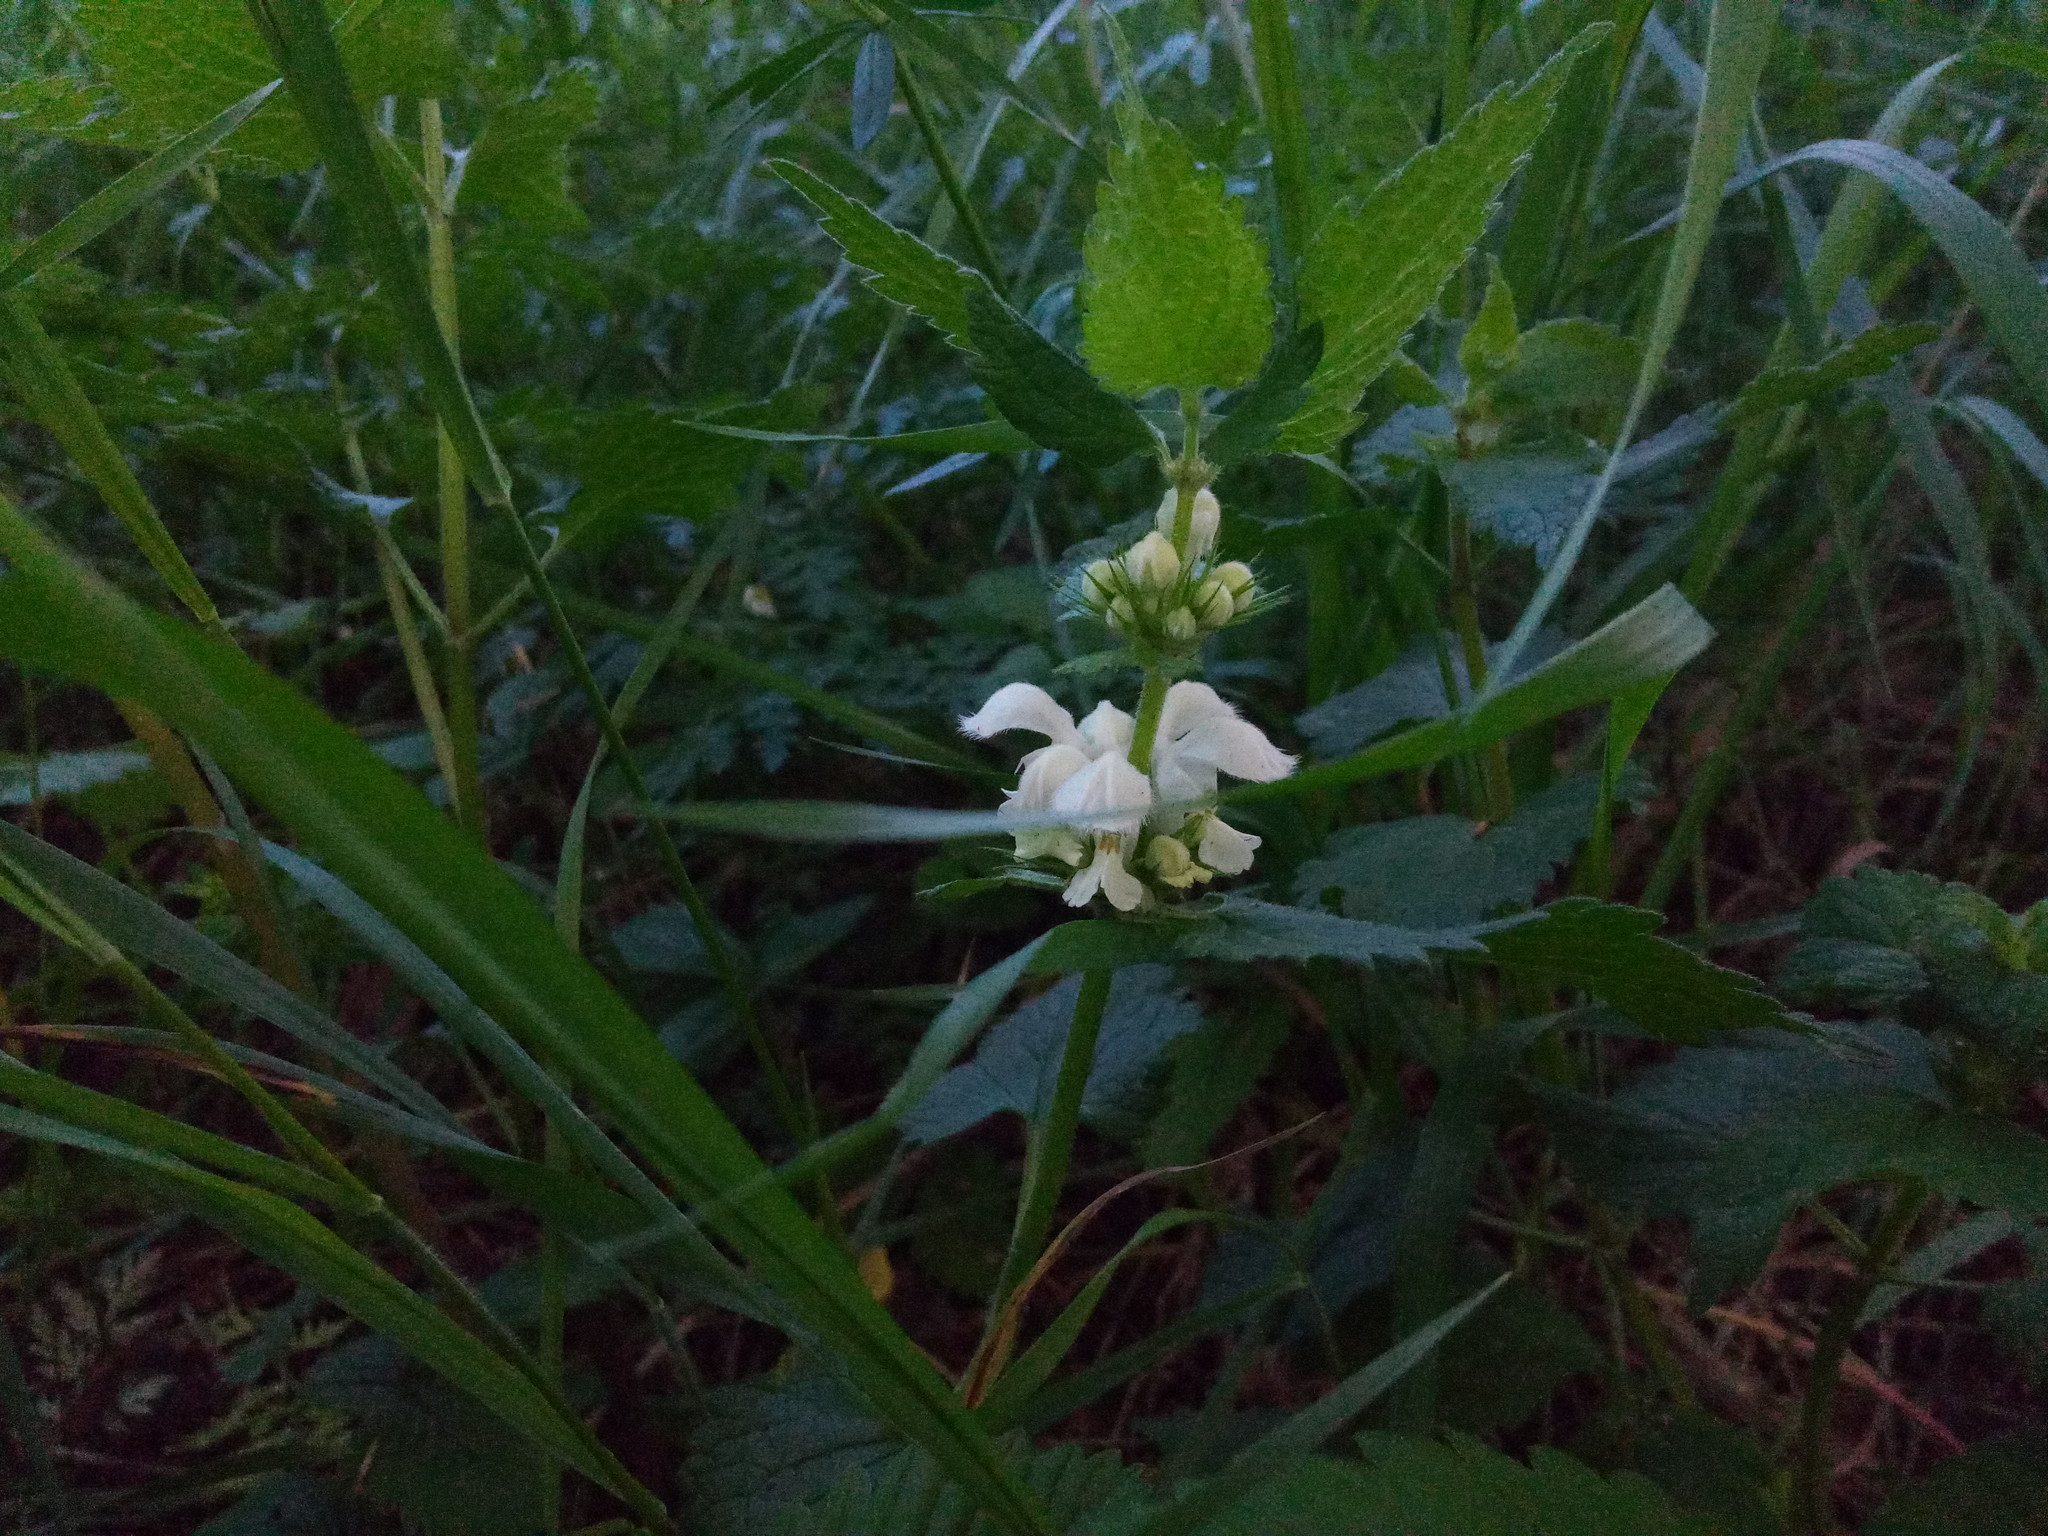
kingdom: Plantae
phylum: Tracheophyta
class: Magnoliopsida
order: Lamiales
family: Lamiaceae
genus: Lamium
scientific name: Lamium album
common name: White dead-nettle
